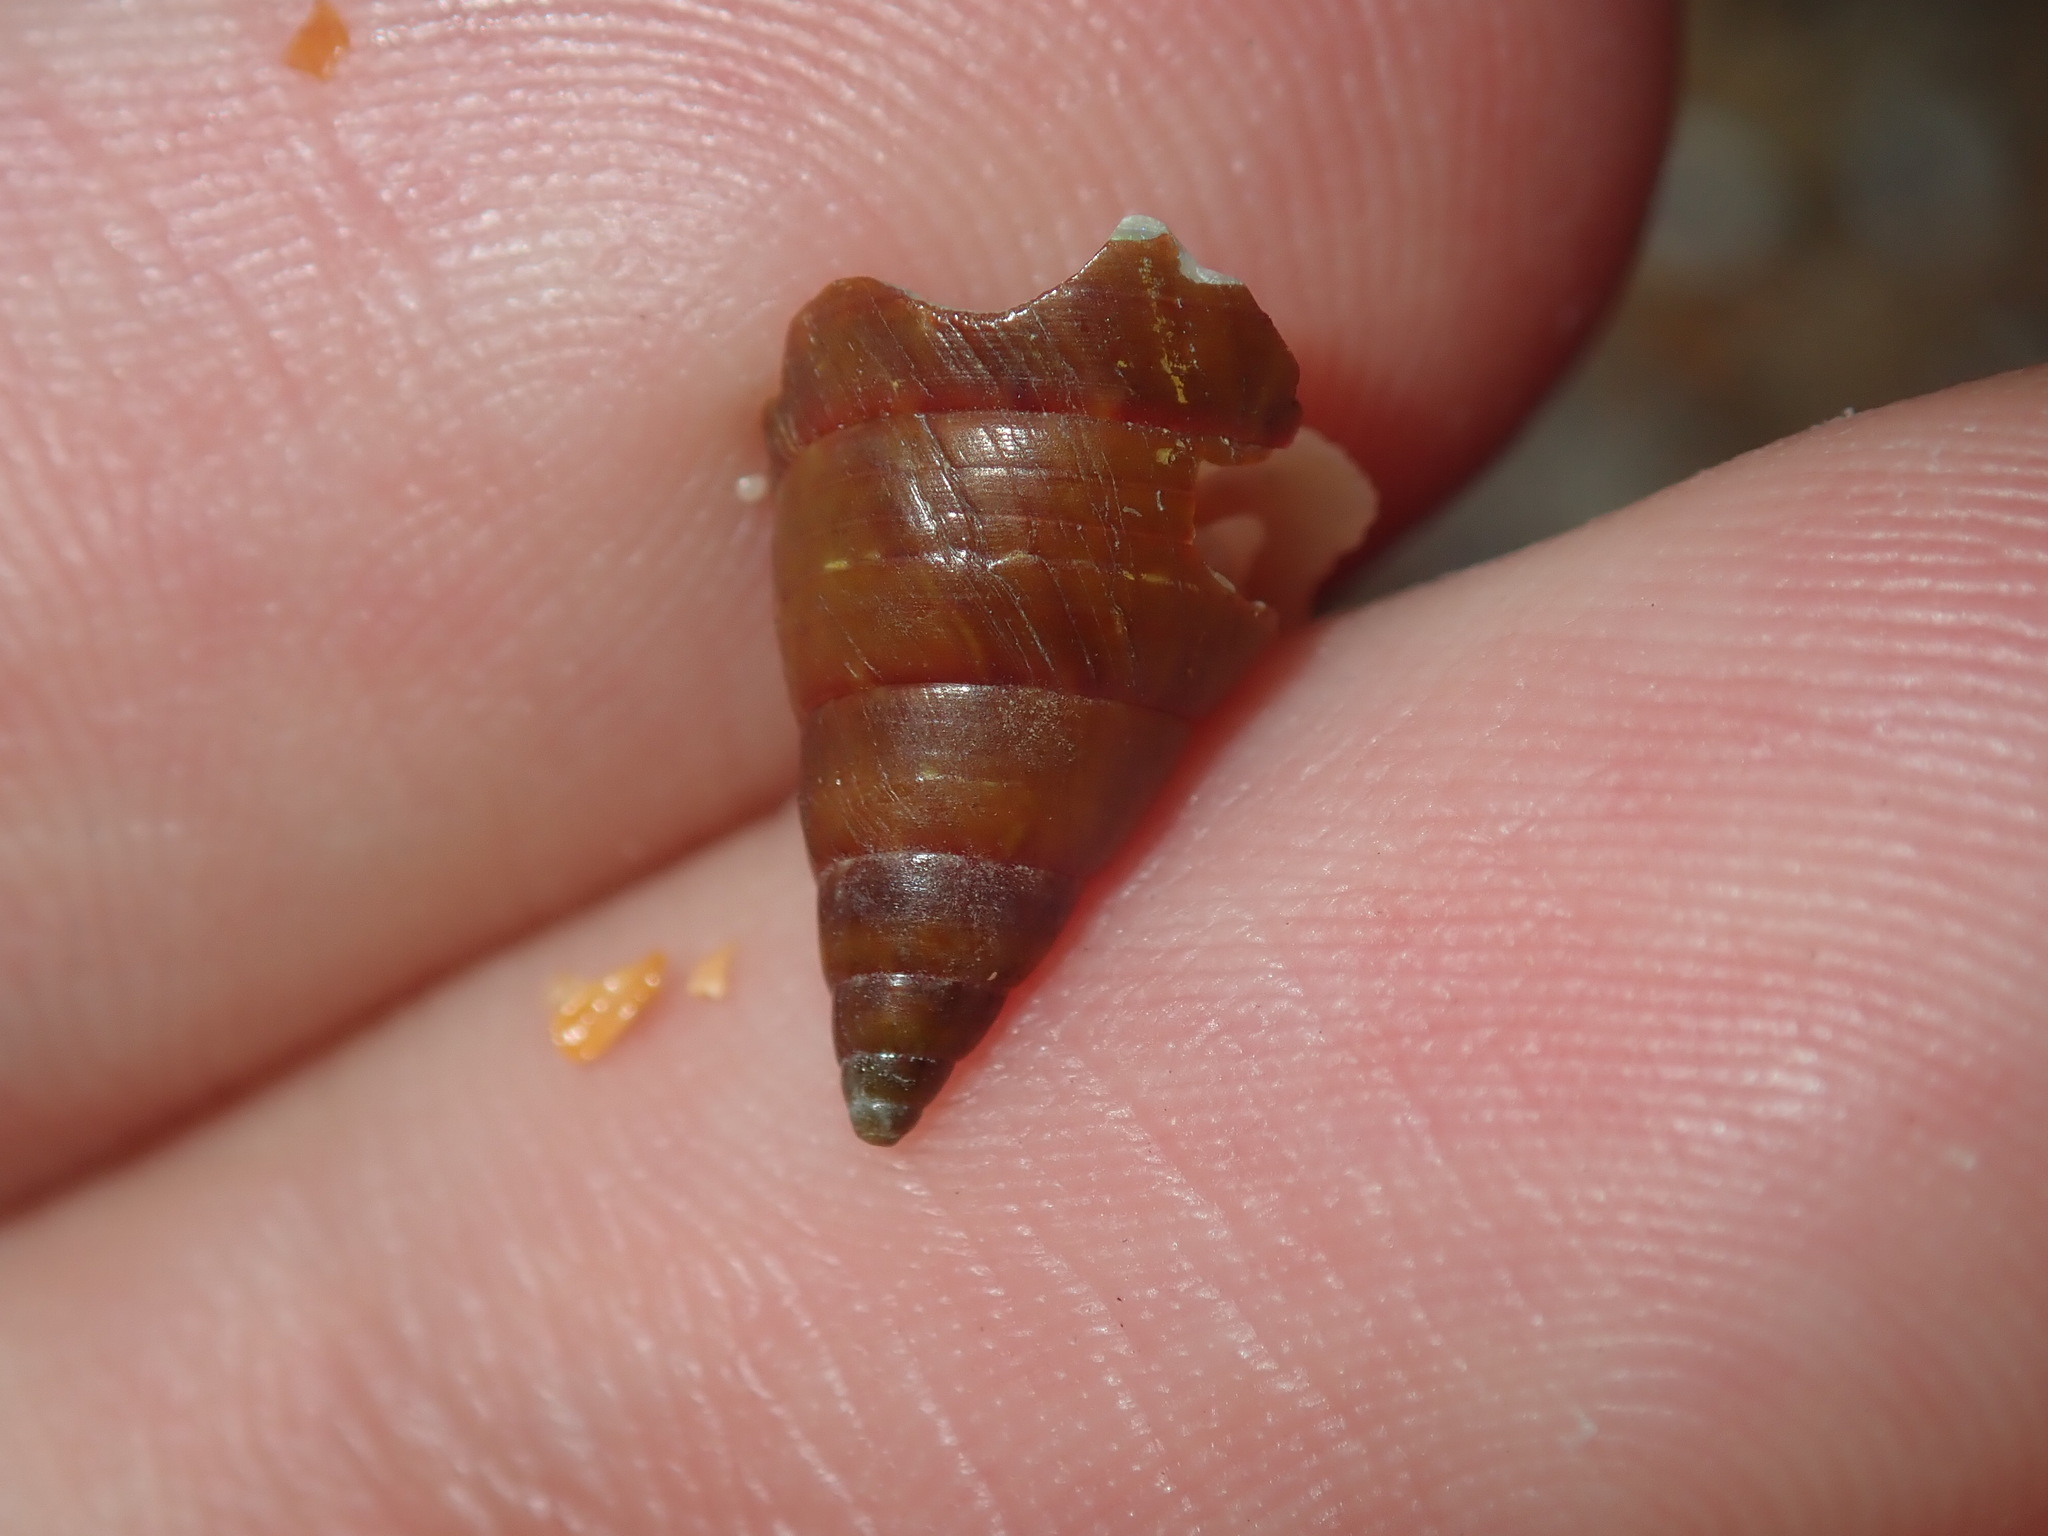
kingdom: Animalia
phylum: Mollusca
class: Gastropoda
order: Trochida
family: Trochidae
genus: Phasianotrochus
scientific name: Phasianotrochus eximius
